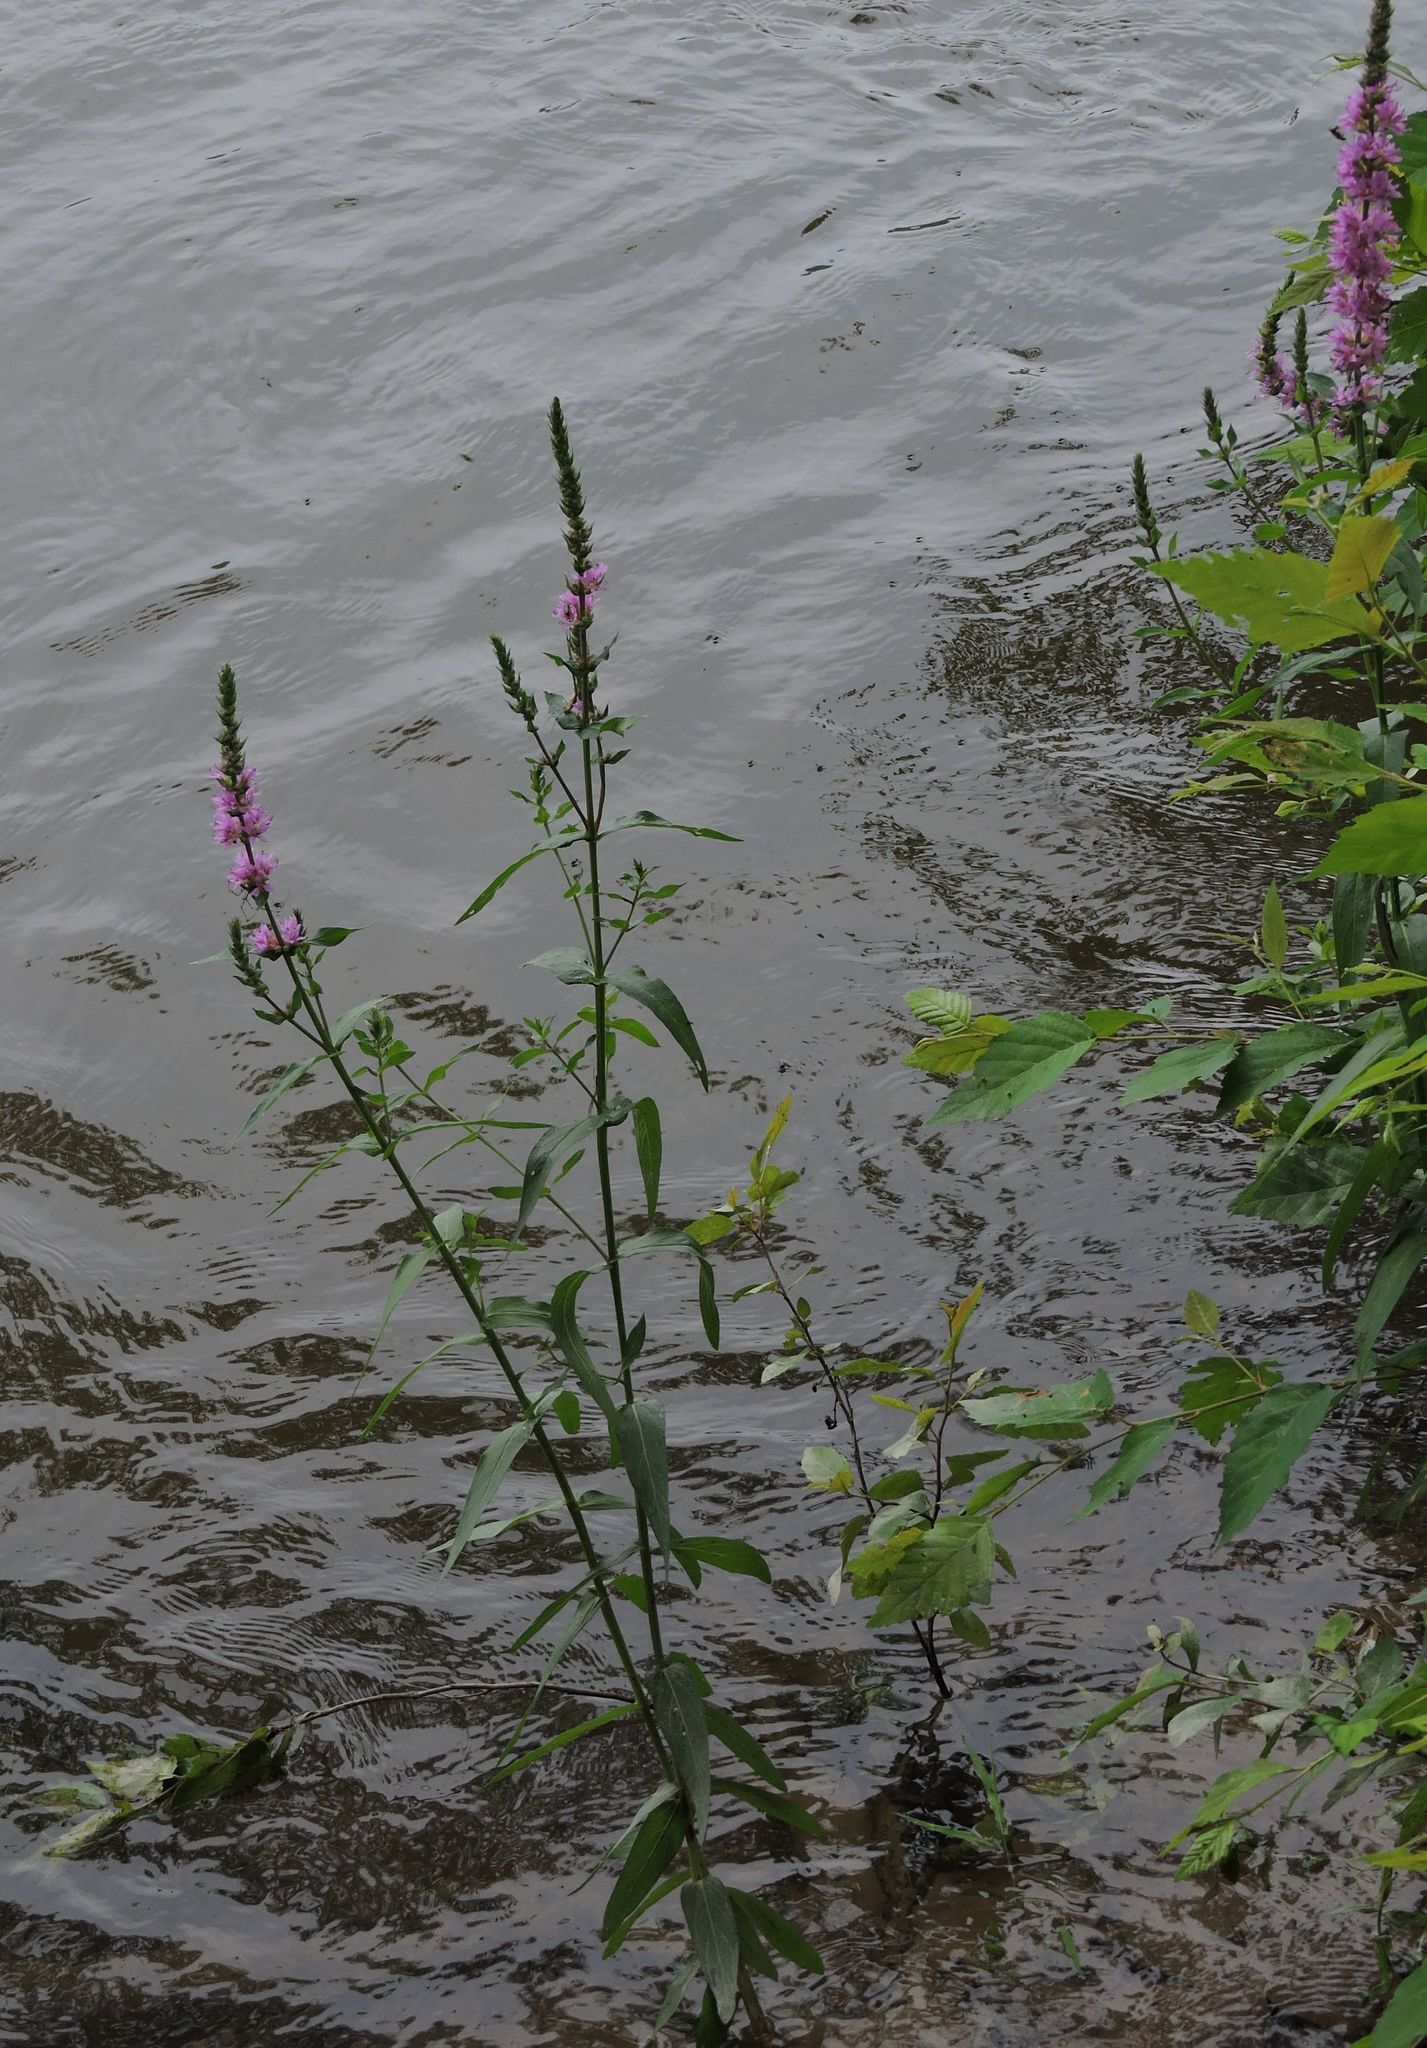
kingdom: Plantae
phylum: Tracheophyta
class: Magnoliopsida
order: Myrtales
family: Lythraceae
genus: Lythrum
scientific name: Lythrum salicaria
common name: Purple loosestrife
